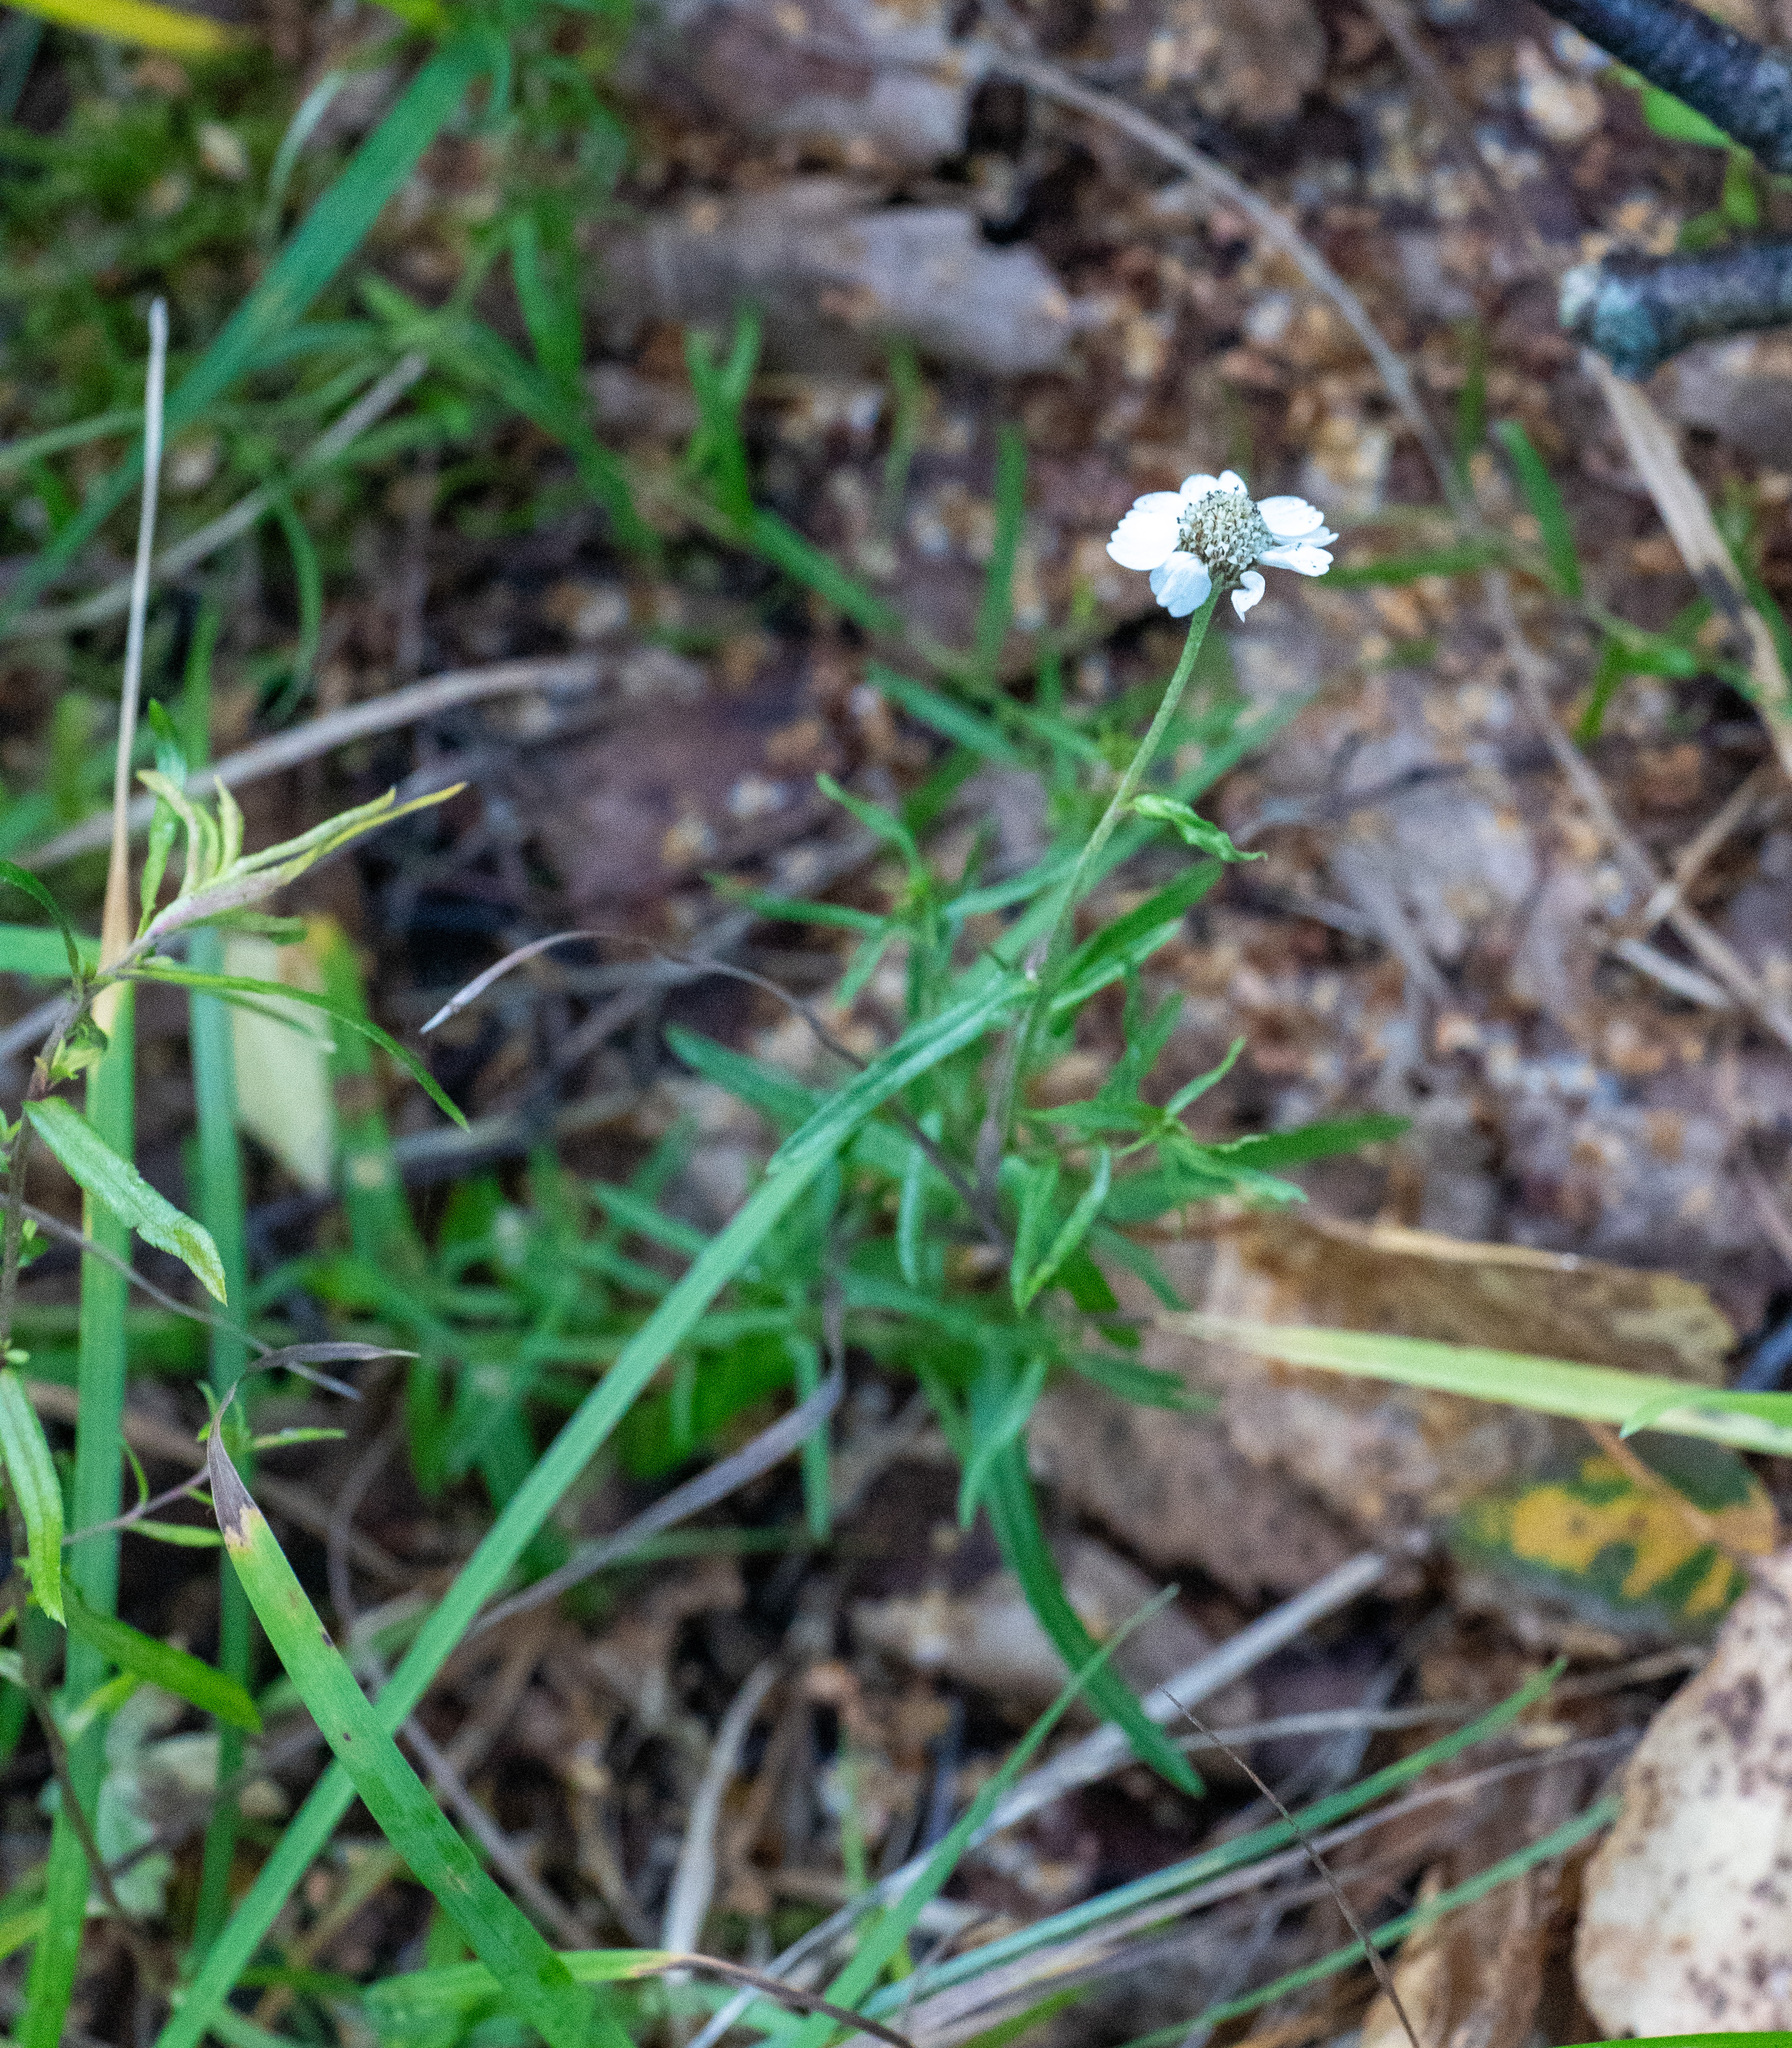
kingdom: Plantae
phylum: Tracheophyta
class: Magnoliopsida
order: Asterales
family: Asteraceae
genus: Achillea
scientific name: Achillea ptarmica
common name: Sneezeweed
